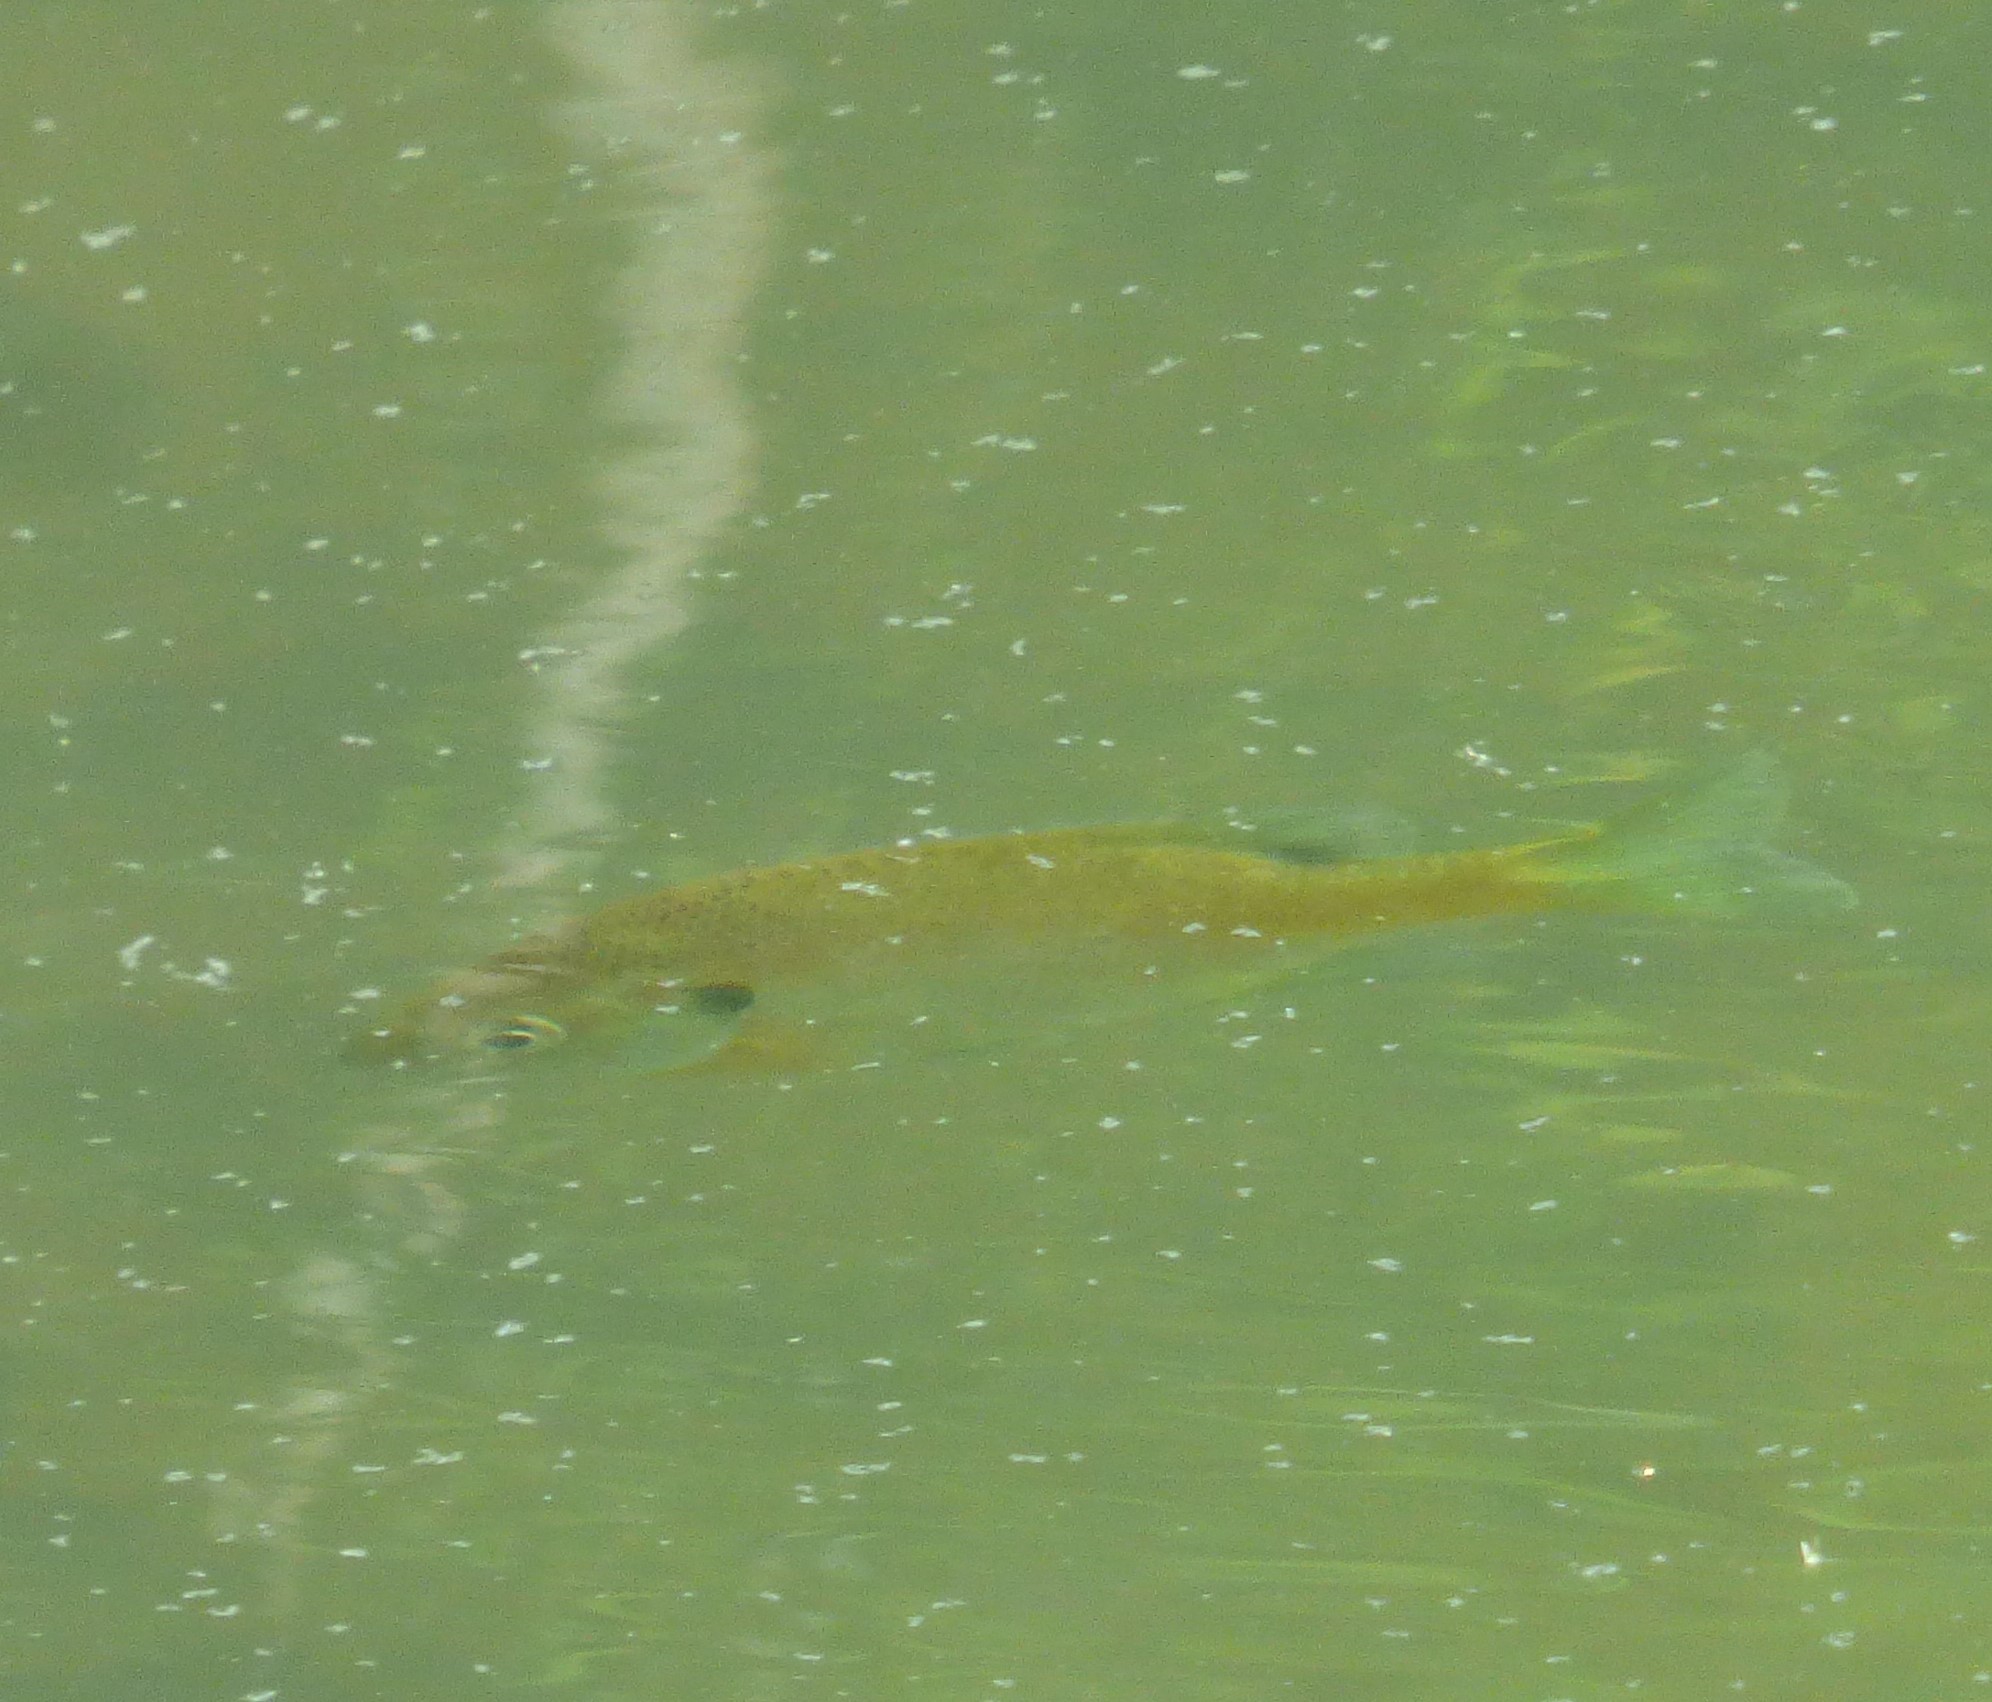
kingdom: Animalia
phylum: Chordata
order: Perciformes
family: Centrarchidae
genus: Lepomis
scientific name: Lepomis macrochirus
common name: Bluegill
